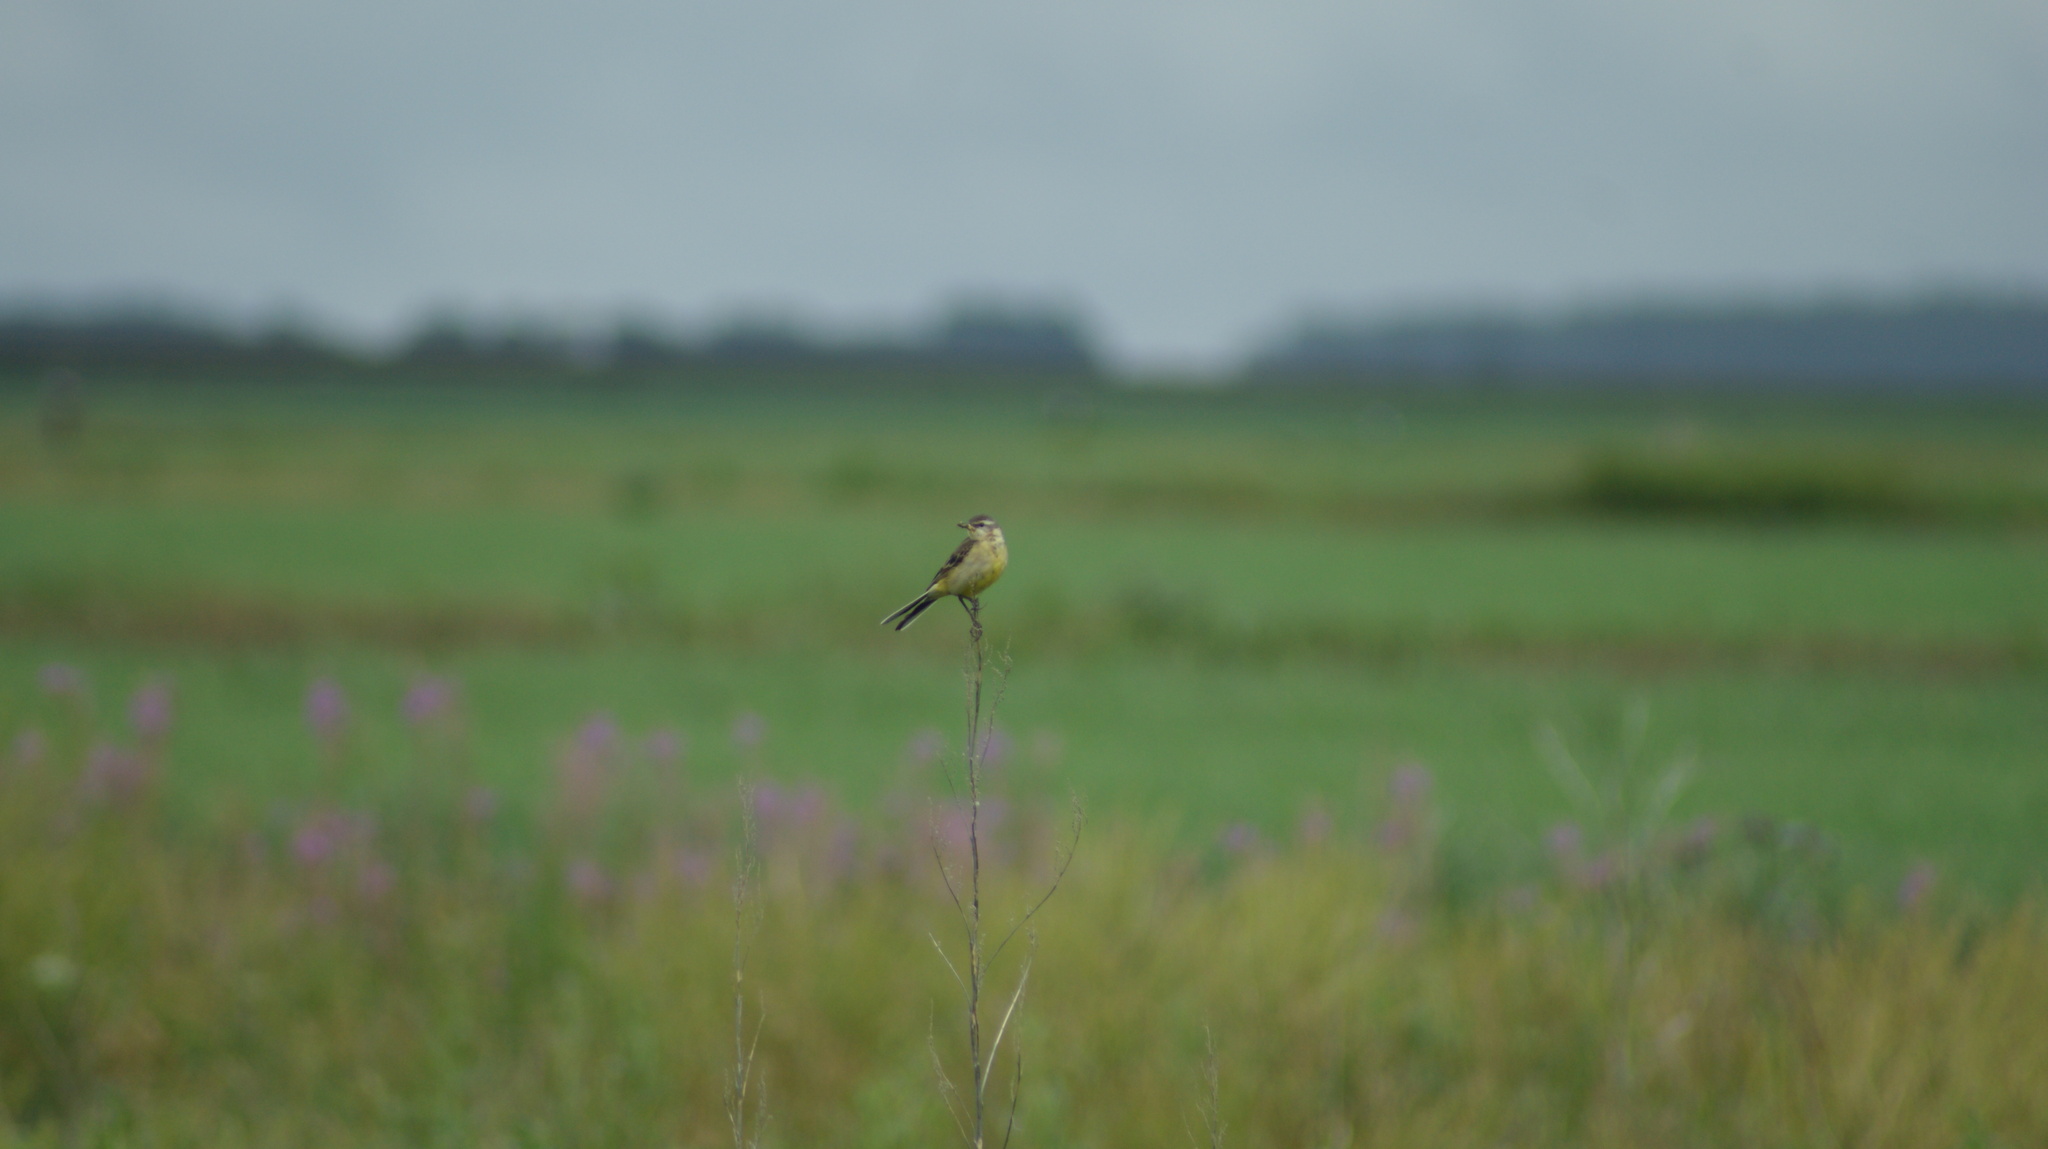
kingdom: Animalia
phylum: Chordata
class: Aves
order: Passeriformes
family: Motacillidae
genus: Motacilla
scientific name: Motacilla flava
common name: Western yellow wagtail
